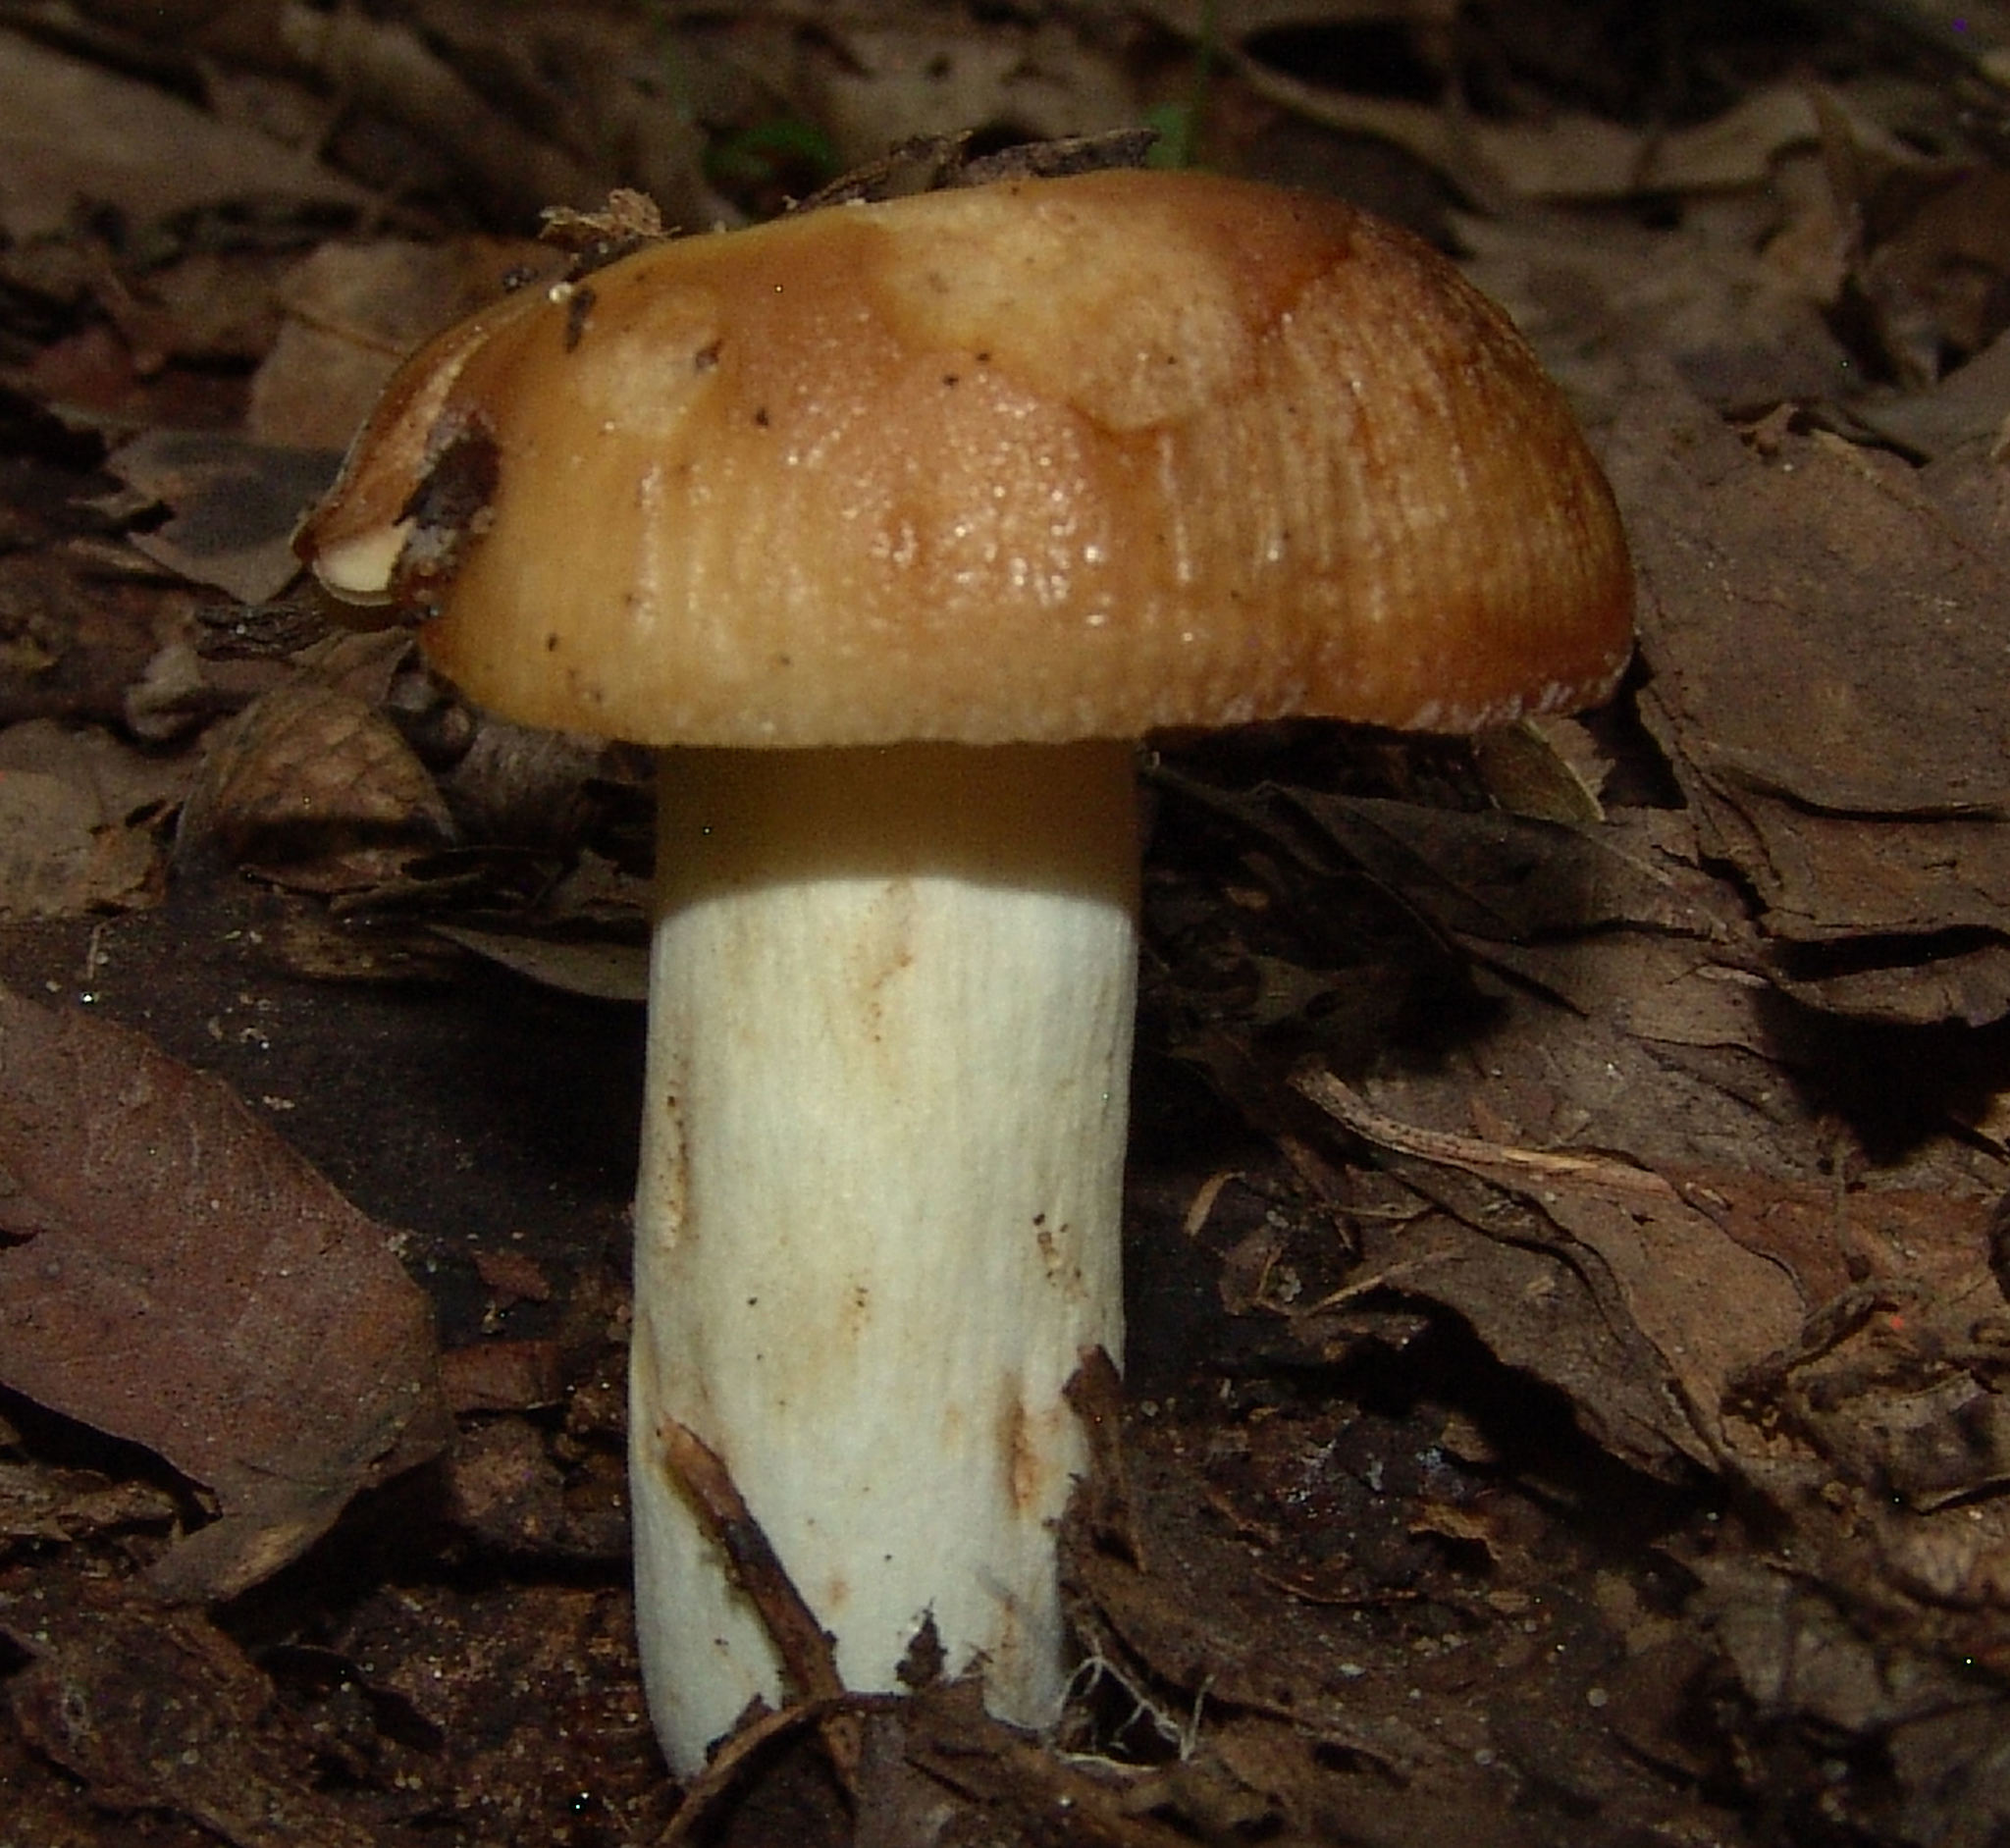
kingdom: Fungi
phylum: Basidiomycota
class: Agaricomycetes
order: Russulales
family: Russulaceae
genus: Russula
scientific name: Russula
